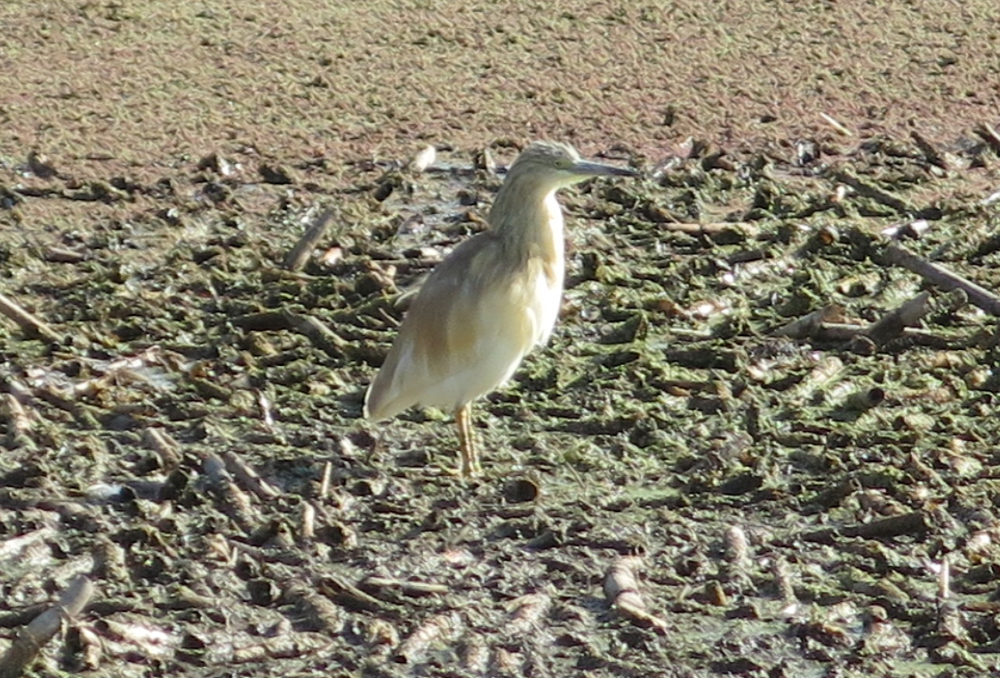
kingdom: Animalia
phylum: Chordata
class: Aves
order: Pelecaniformes
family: Ardeidae
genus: Ardeola
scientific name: Ardeola ralloides
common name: Squacco heron
